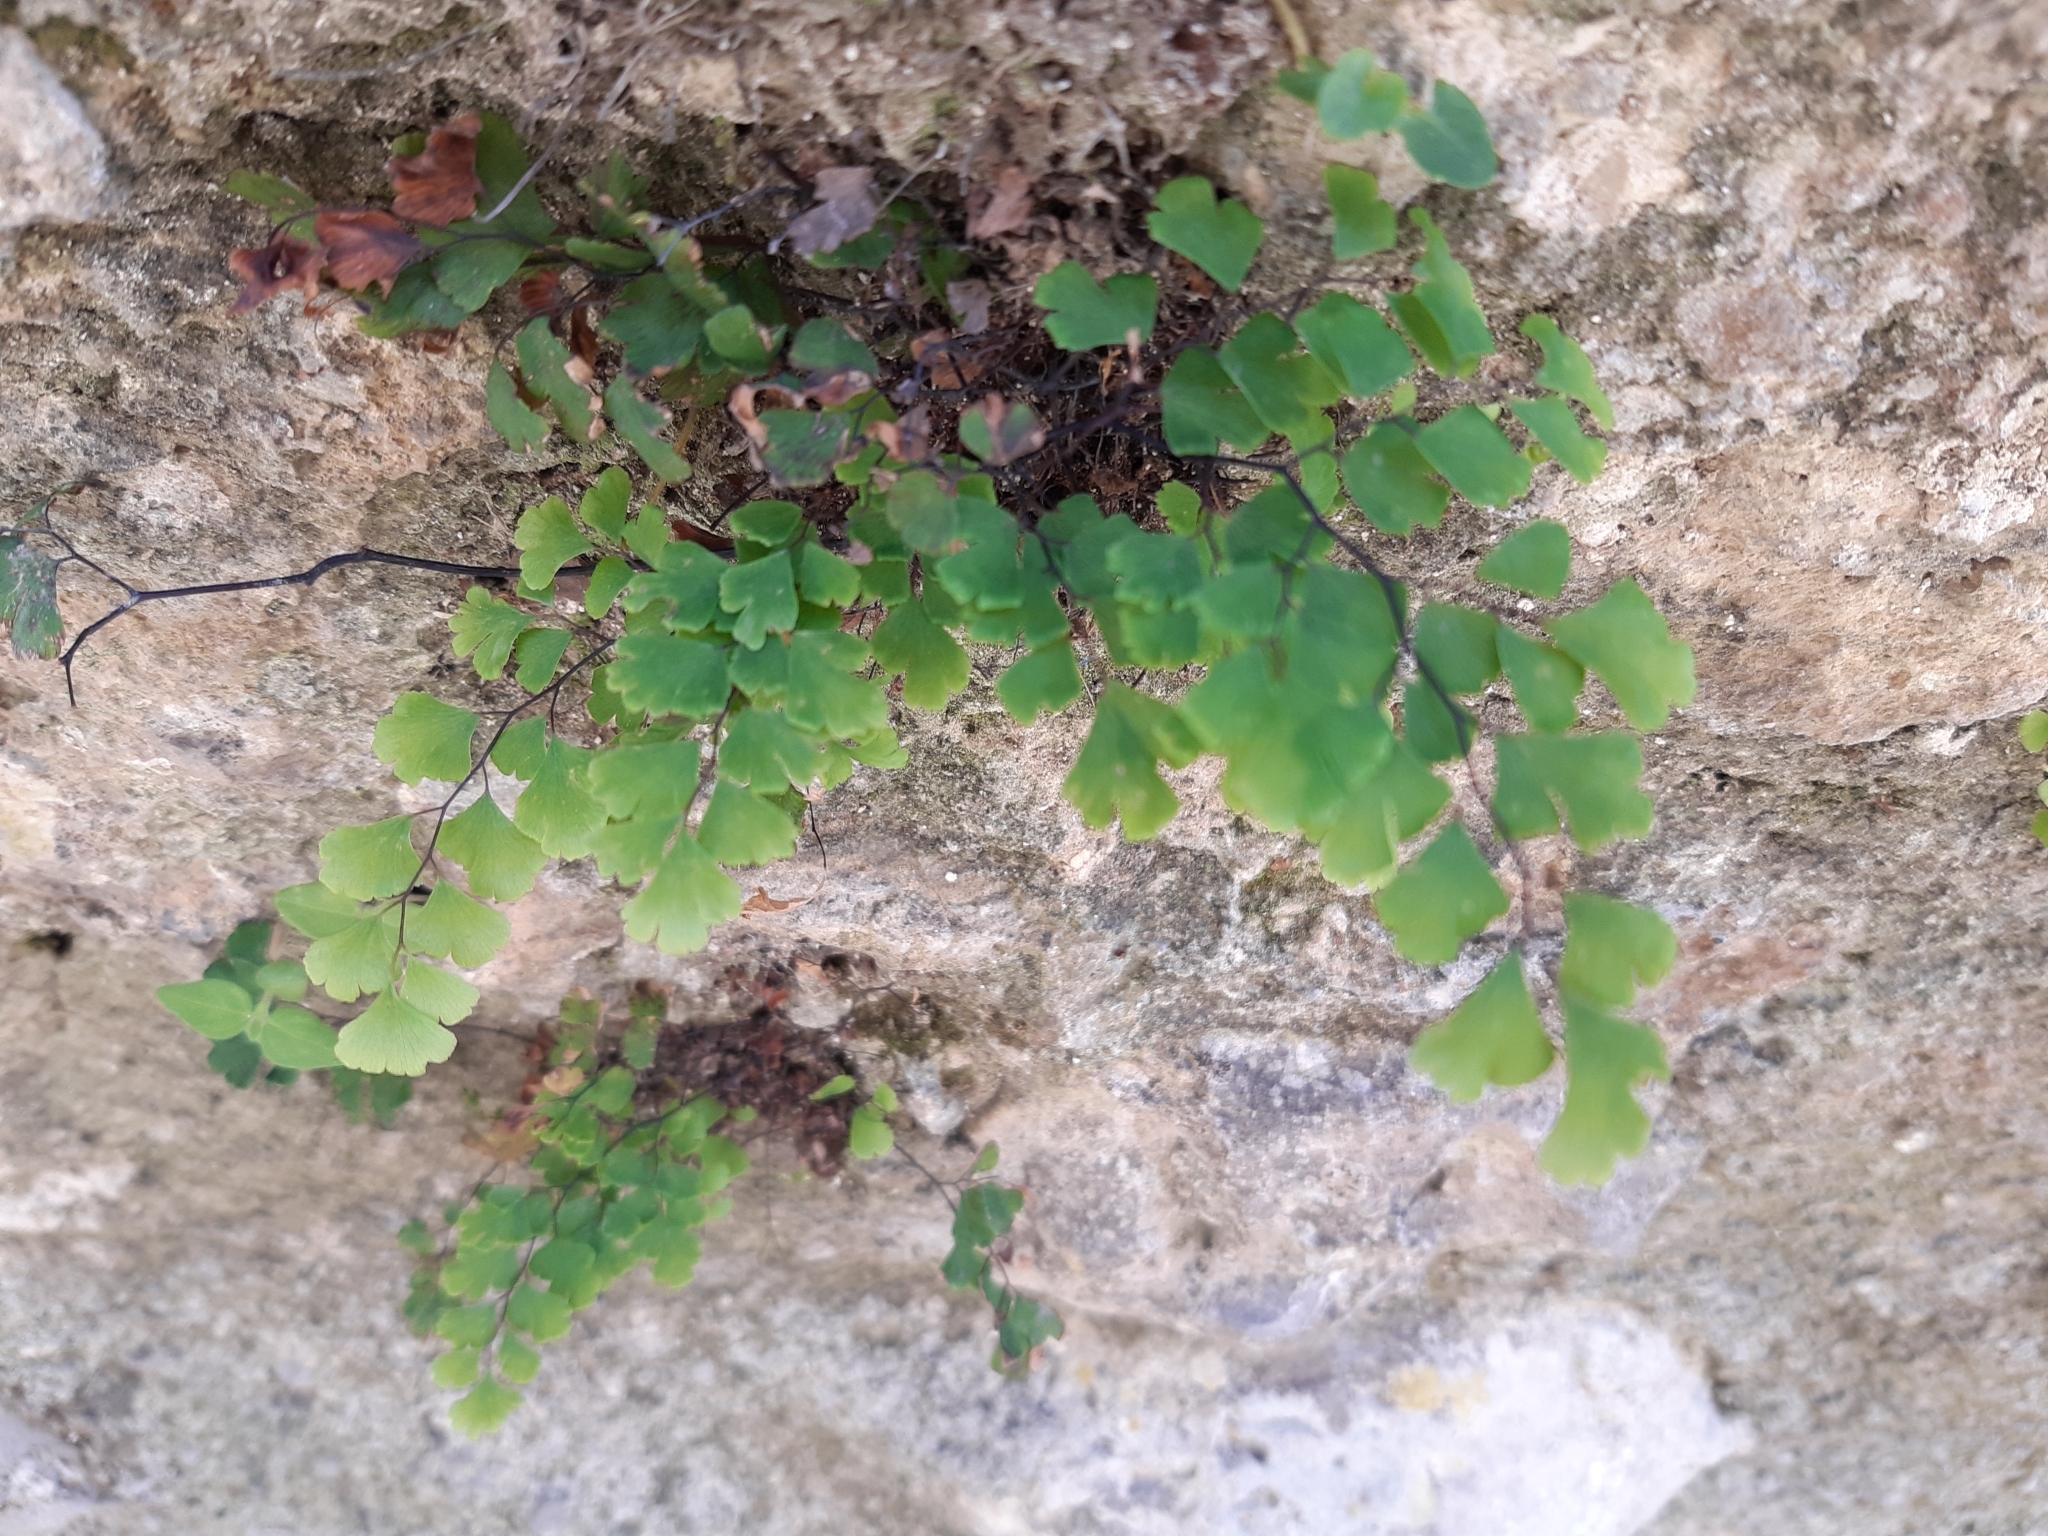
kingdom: Plantae
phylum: Tracheophyta
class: Polypodiopsida
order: Polypodiales
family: Pteridaceae
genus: Adiantum
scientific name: Adiantum capillus-veneris
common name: Maidenhair fern
